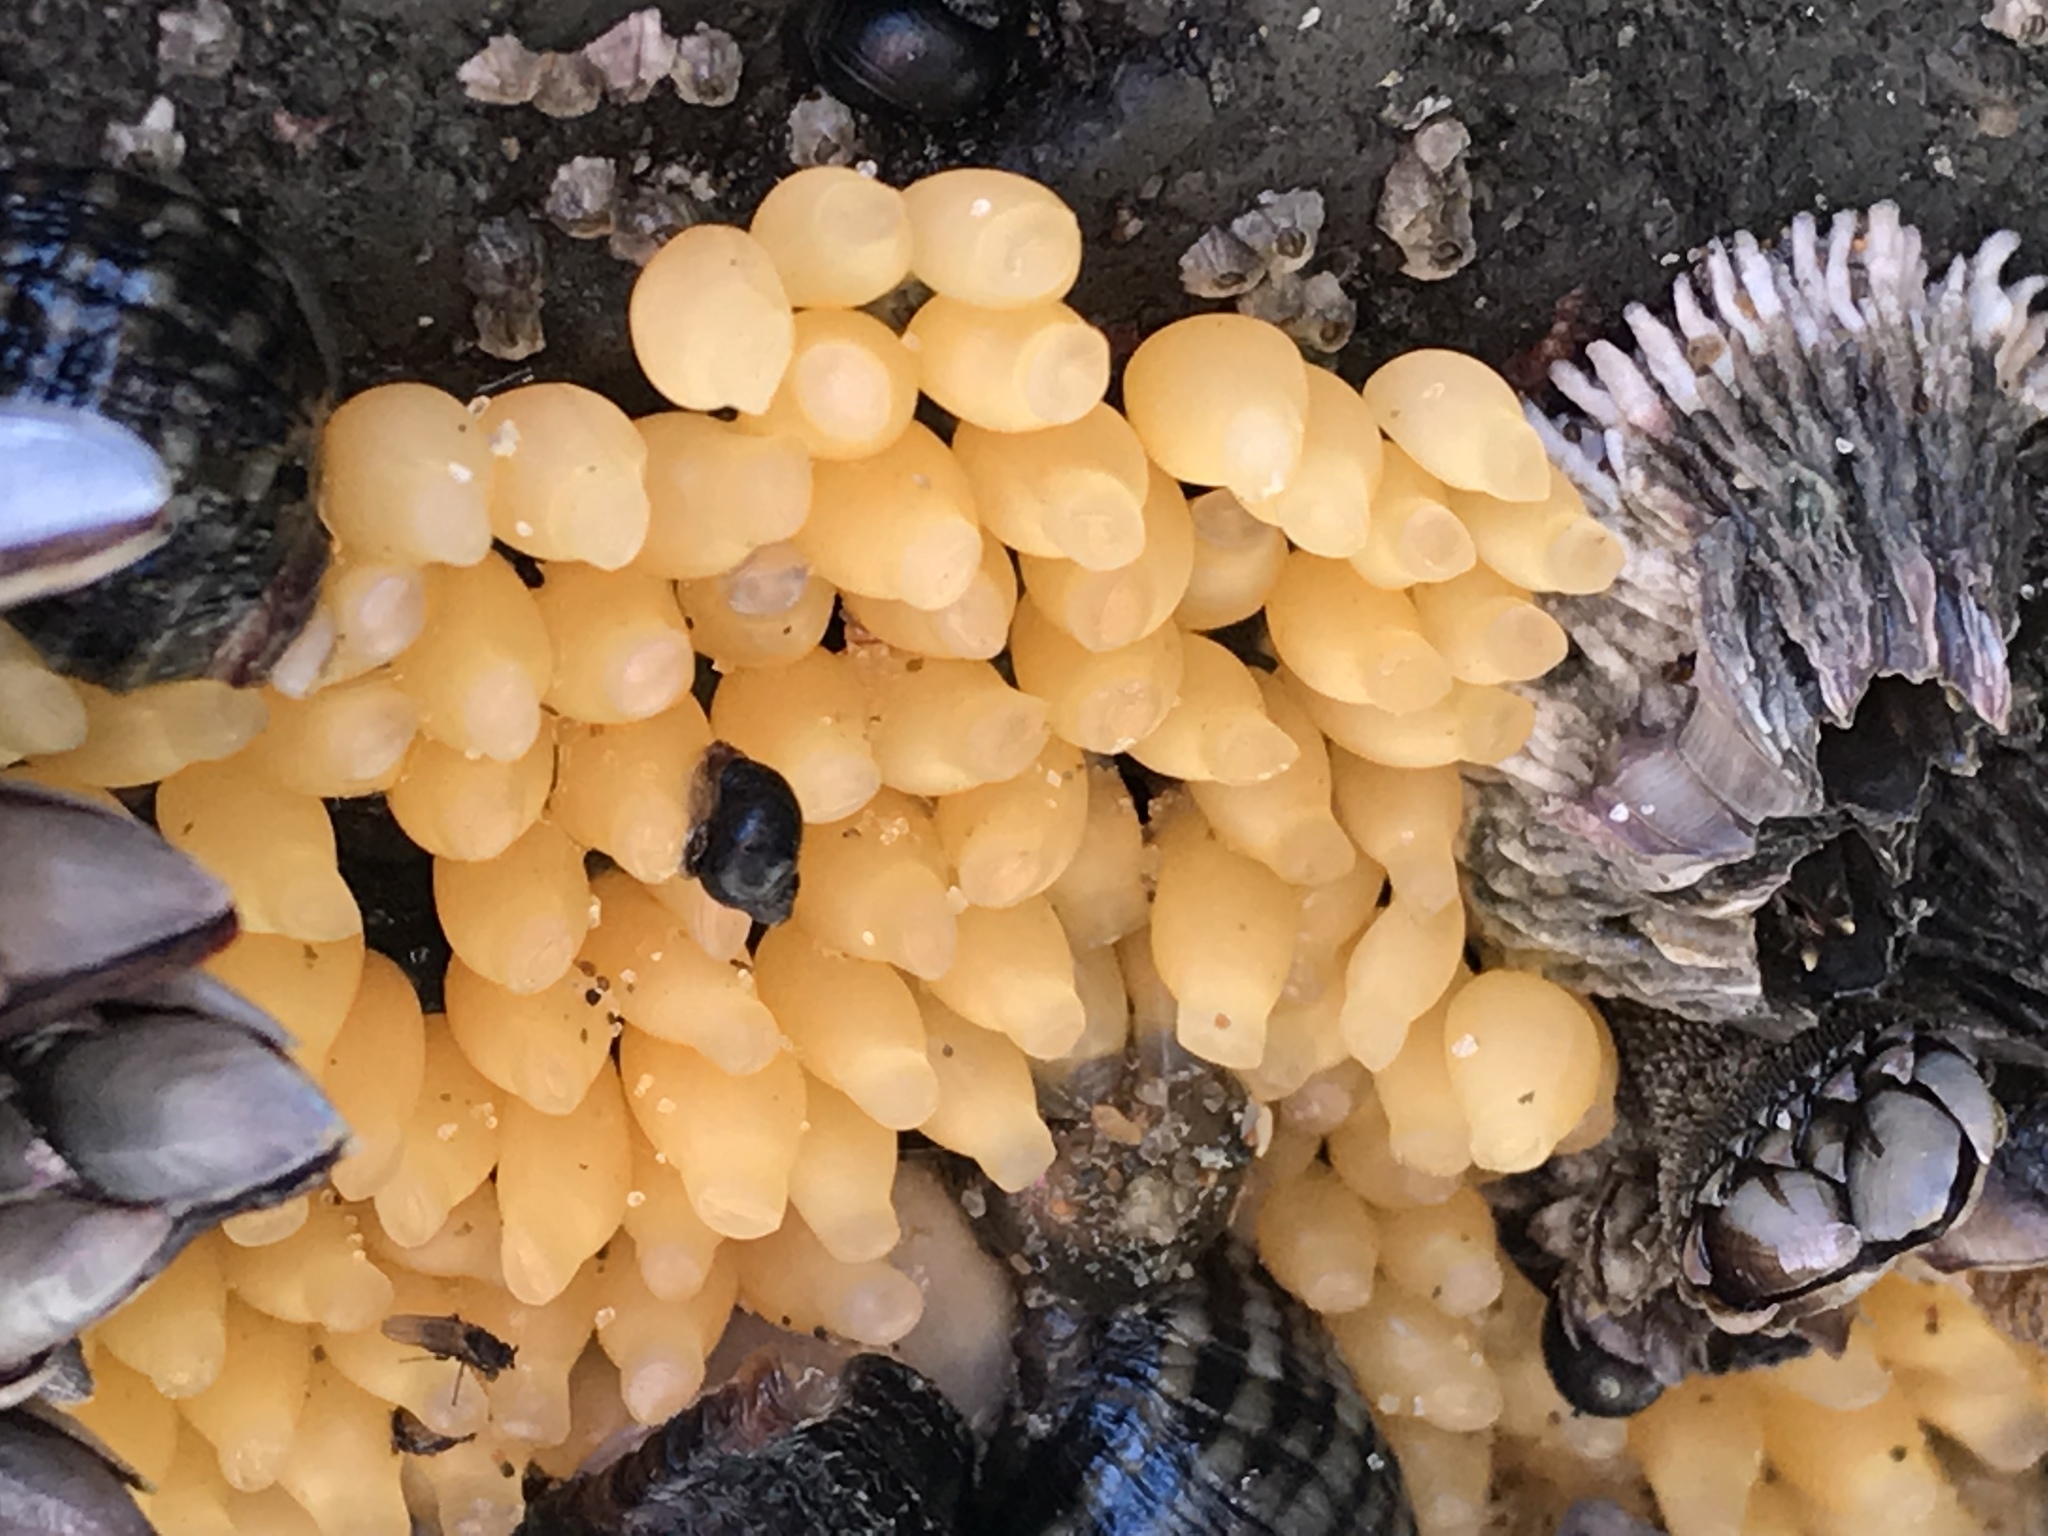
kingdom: Animalia
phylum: Mollusca
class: Gastropoda
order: Neogastropoda
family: Muricidae
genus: Nucella
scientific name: Nucella ostrina
